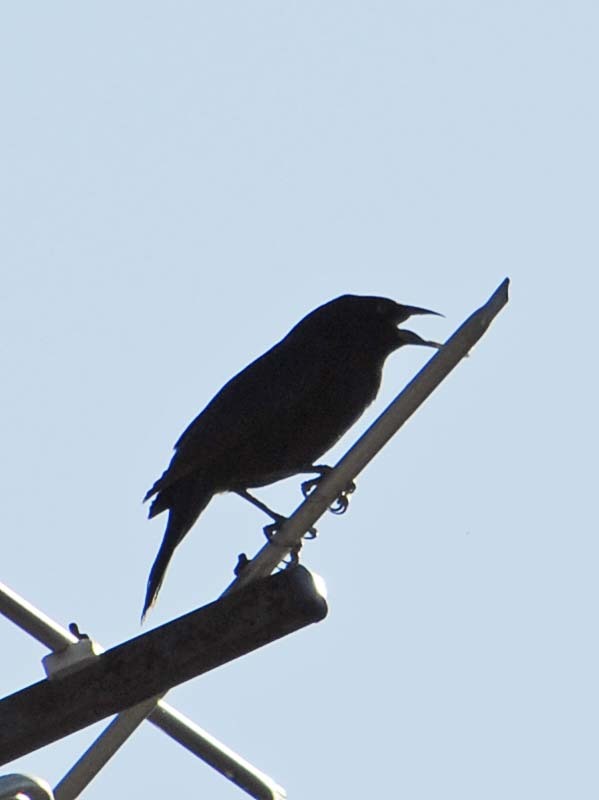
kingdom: Animalia
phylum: Chordata
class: Aves
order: Passeriformes
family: Icteridae
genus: Molothrus
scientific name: Molothrus aeneus
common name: Bronzed cowbird
